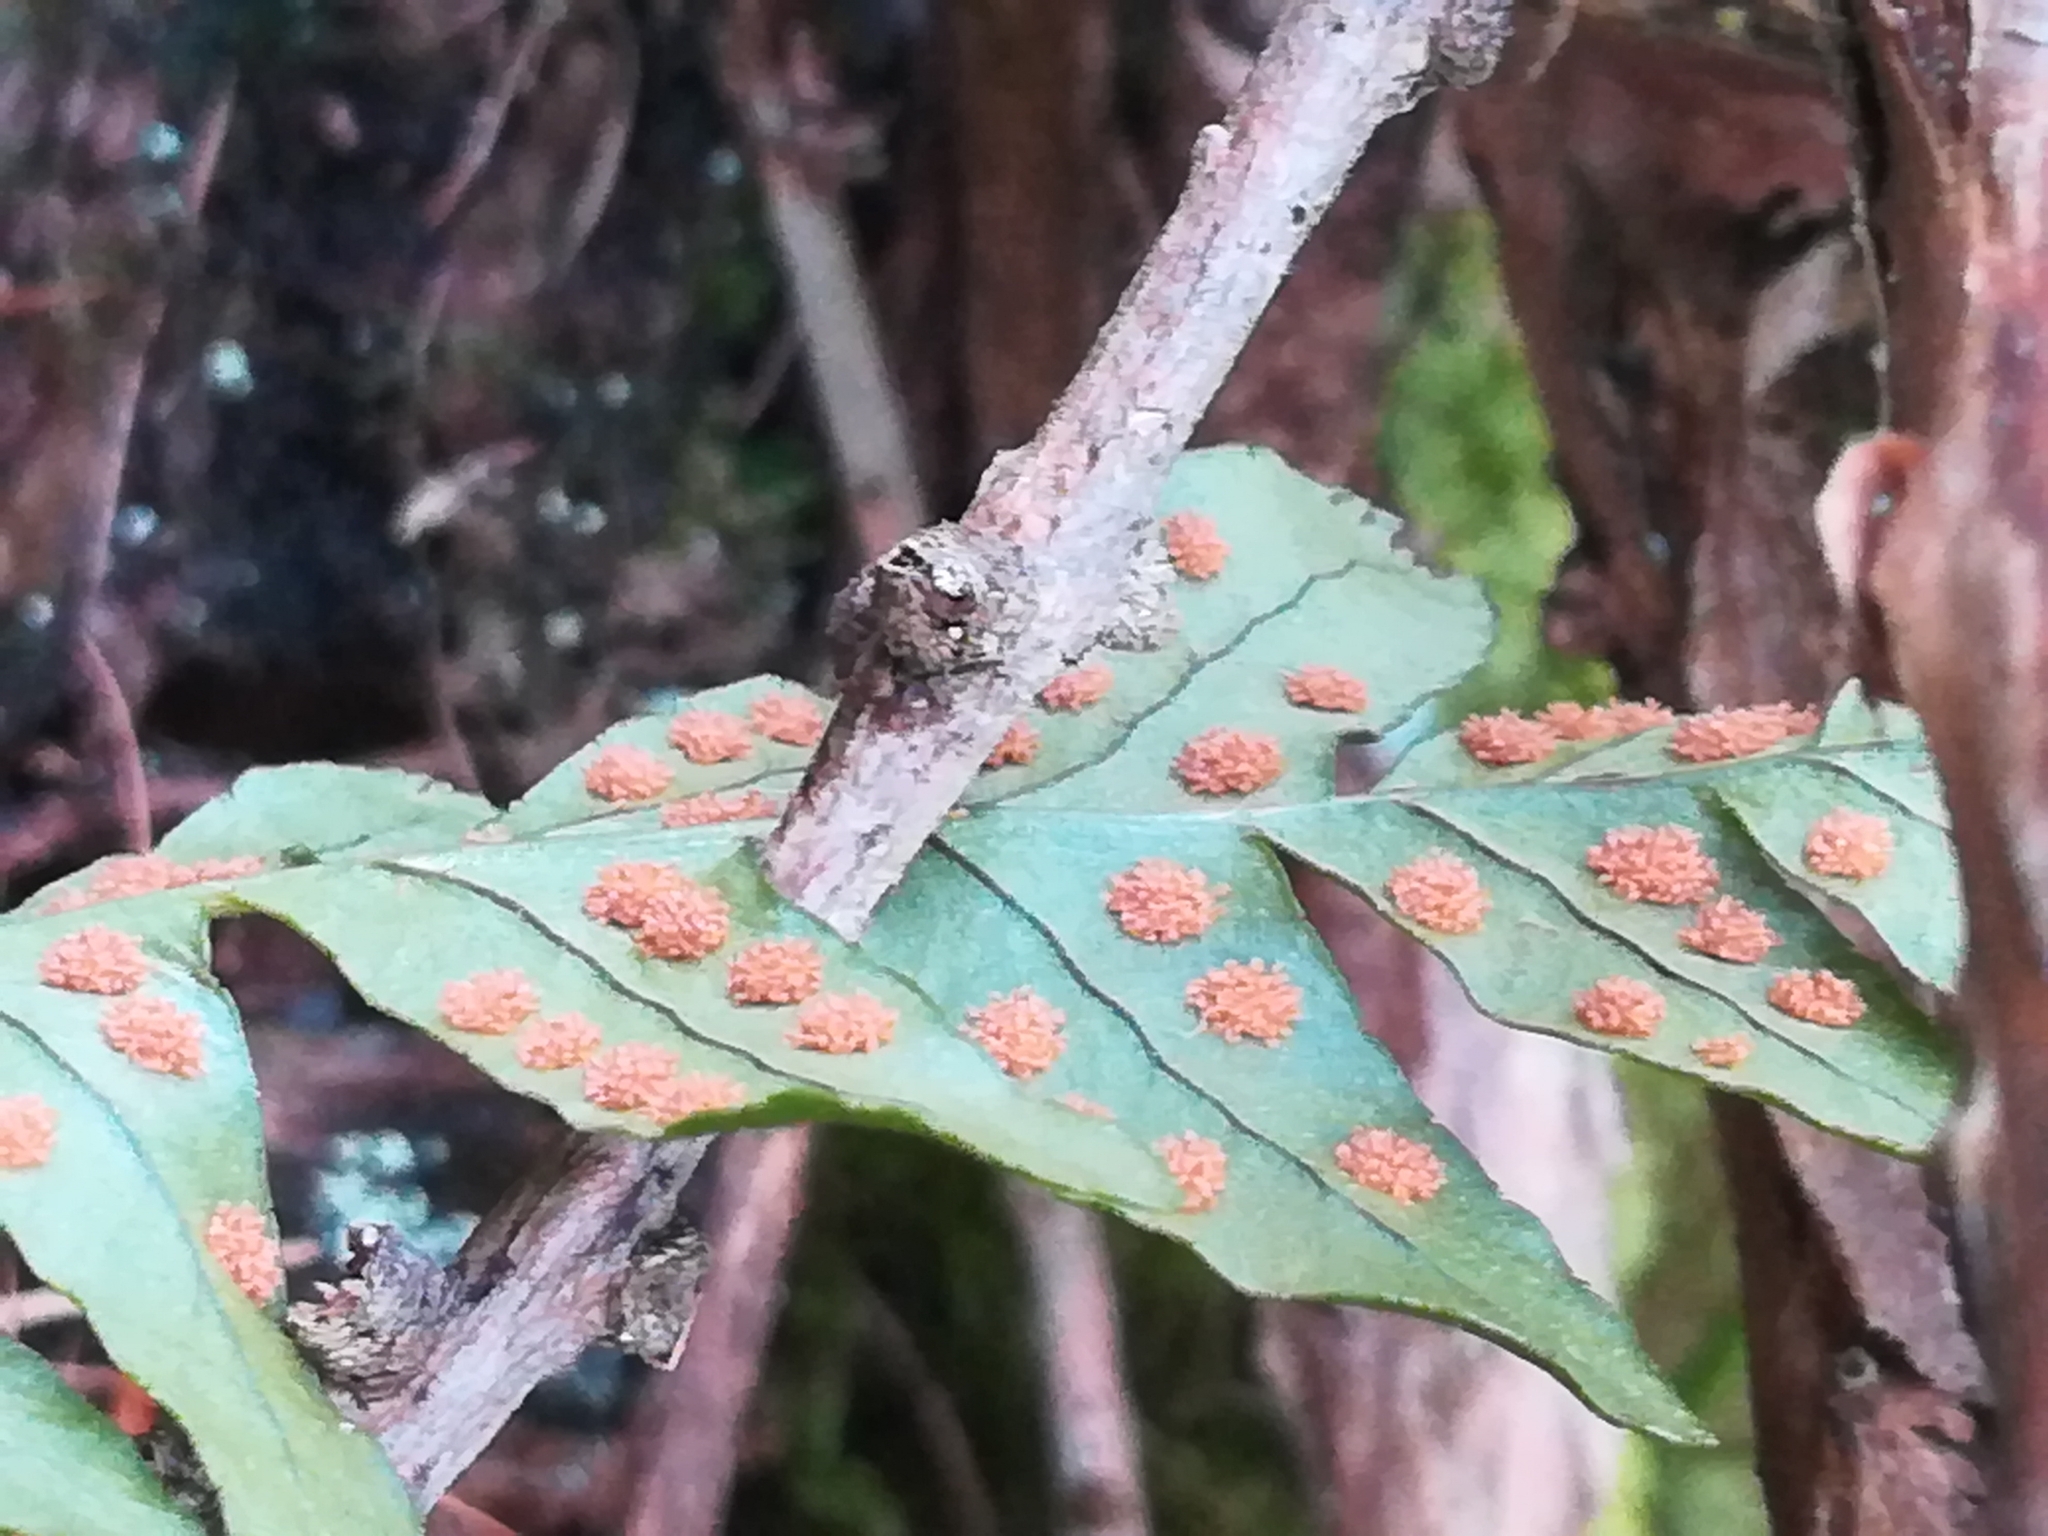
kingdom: Plantae
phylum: Tracheophyta
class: Polypodiopsida
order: Polypodiales
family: Polypodiaceae
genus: Polypodium
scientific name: Polypodium vulgare
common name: Common polypody
